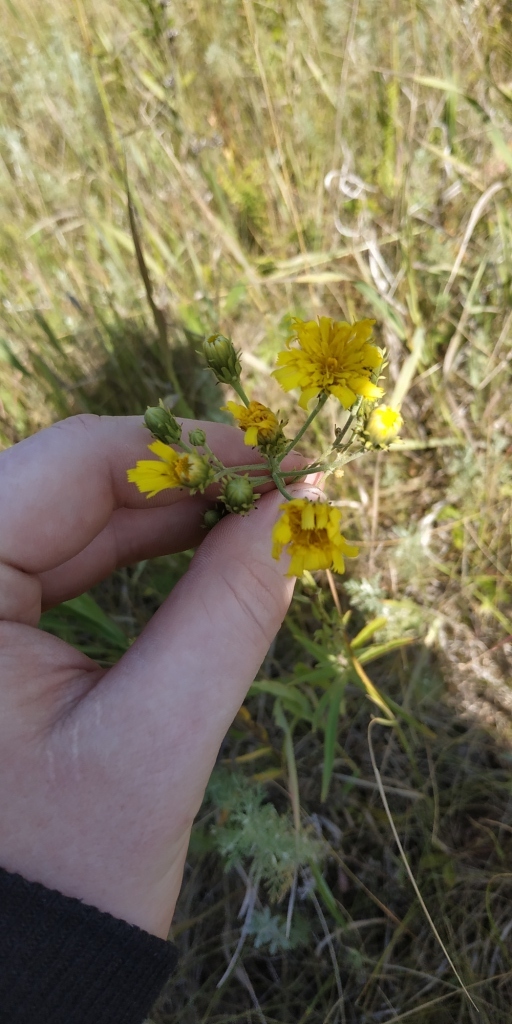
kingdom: Plantae
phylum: Tracheophyta
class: Magnoliopsida
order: Asterales
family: Asteraceae
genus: Hieracium
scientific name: Hieracium umbellatum
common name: Northern hawkweed
